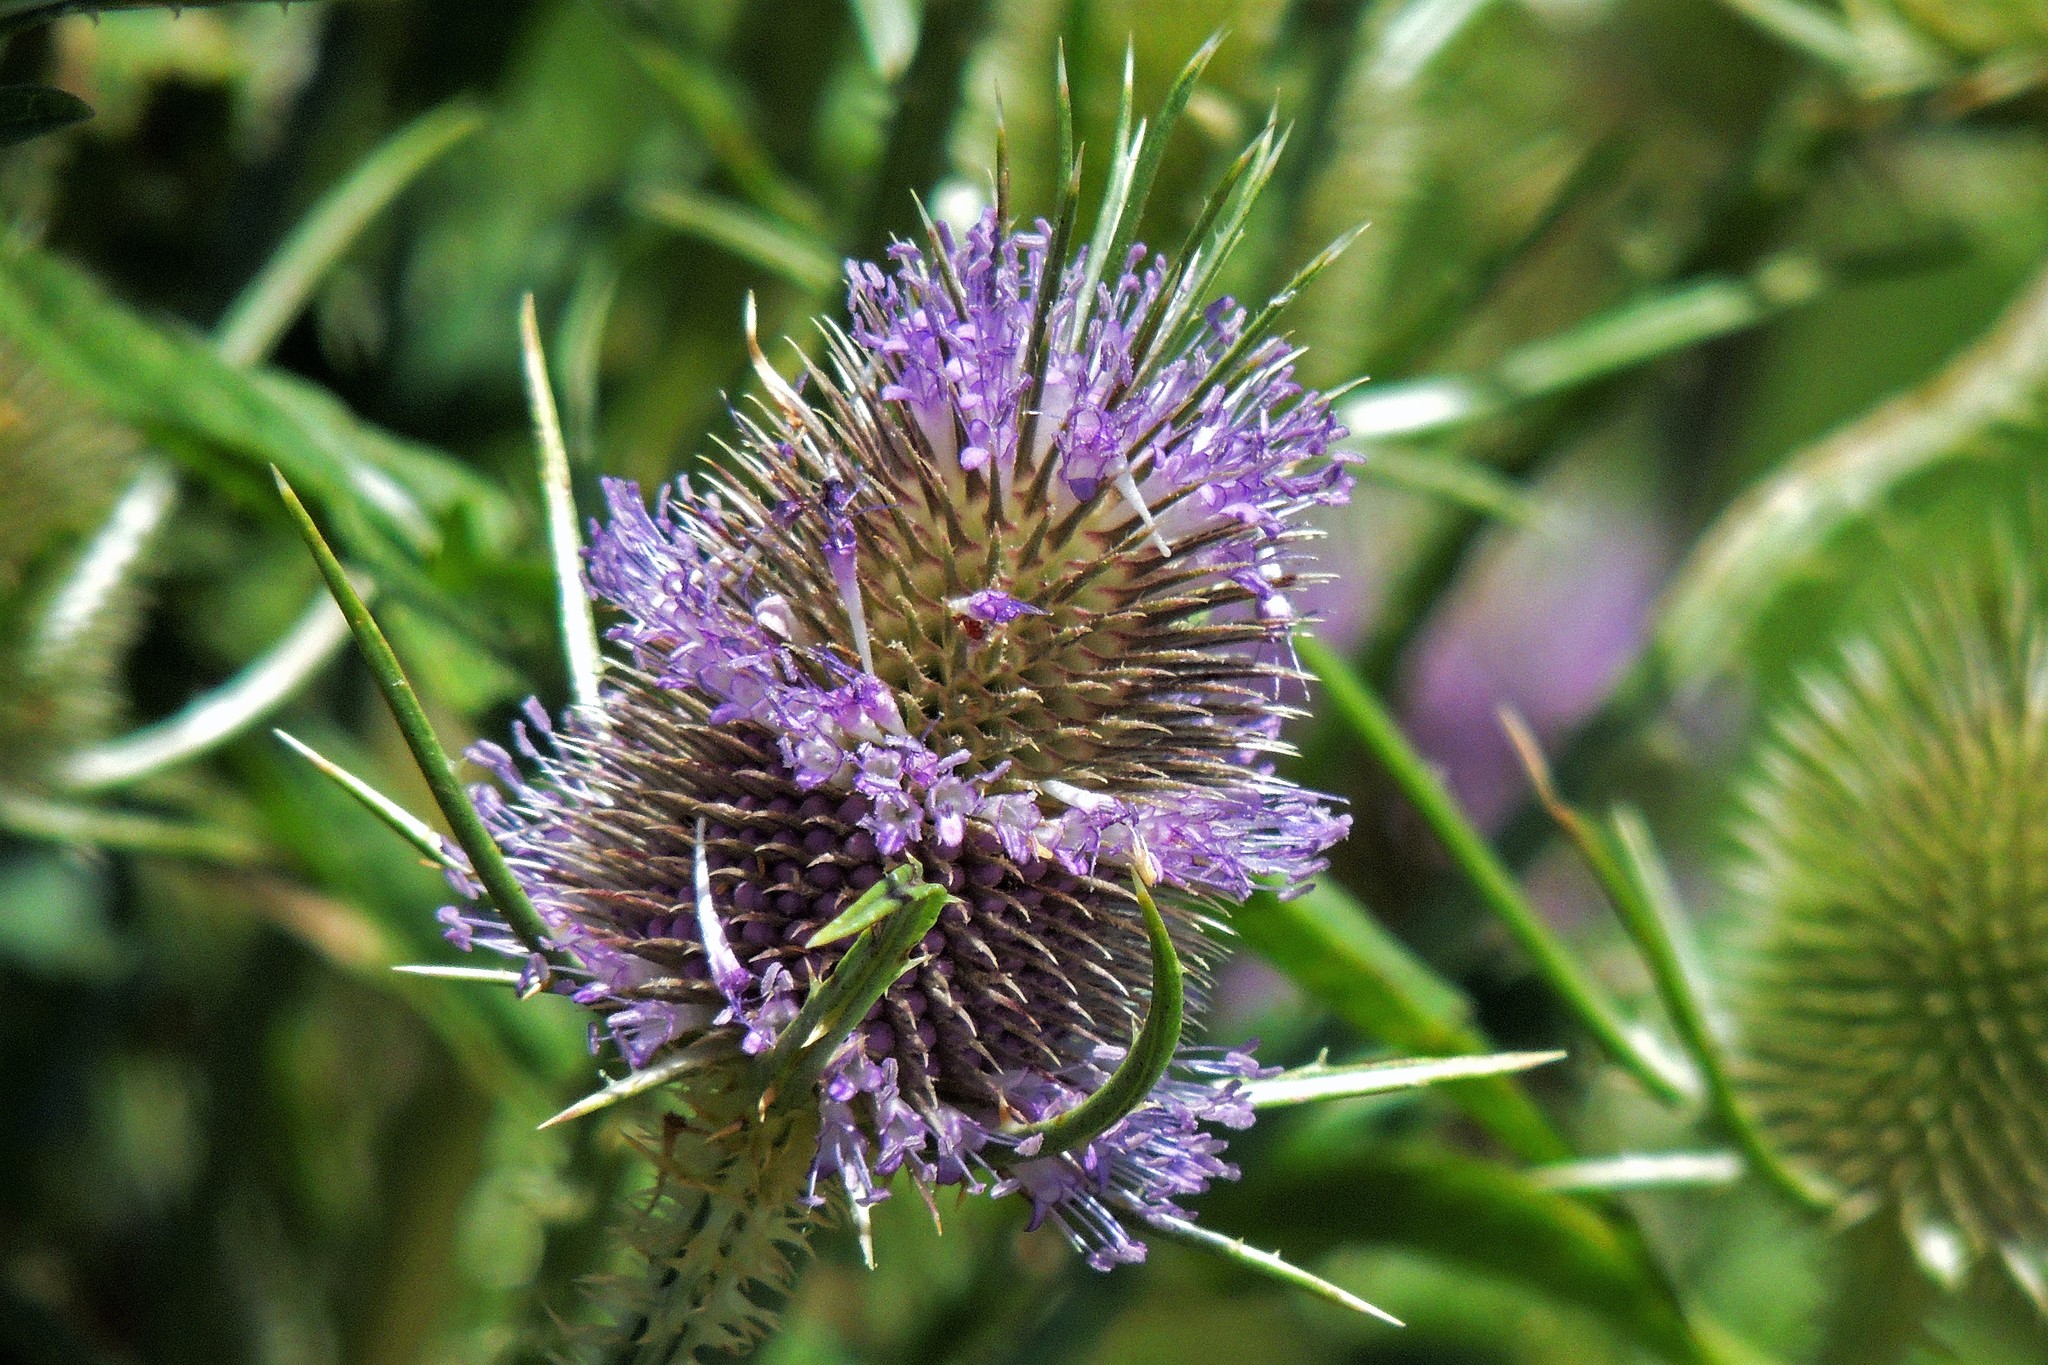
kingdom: Plantae
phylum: Tracheophyta
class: Magnoliopsida
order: Dipsacales
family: Caprifoliaceae
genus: Dipsacus
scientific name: Dipsacus fullonum
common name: Teasel
